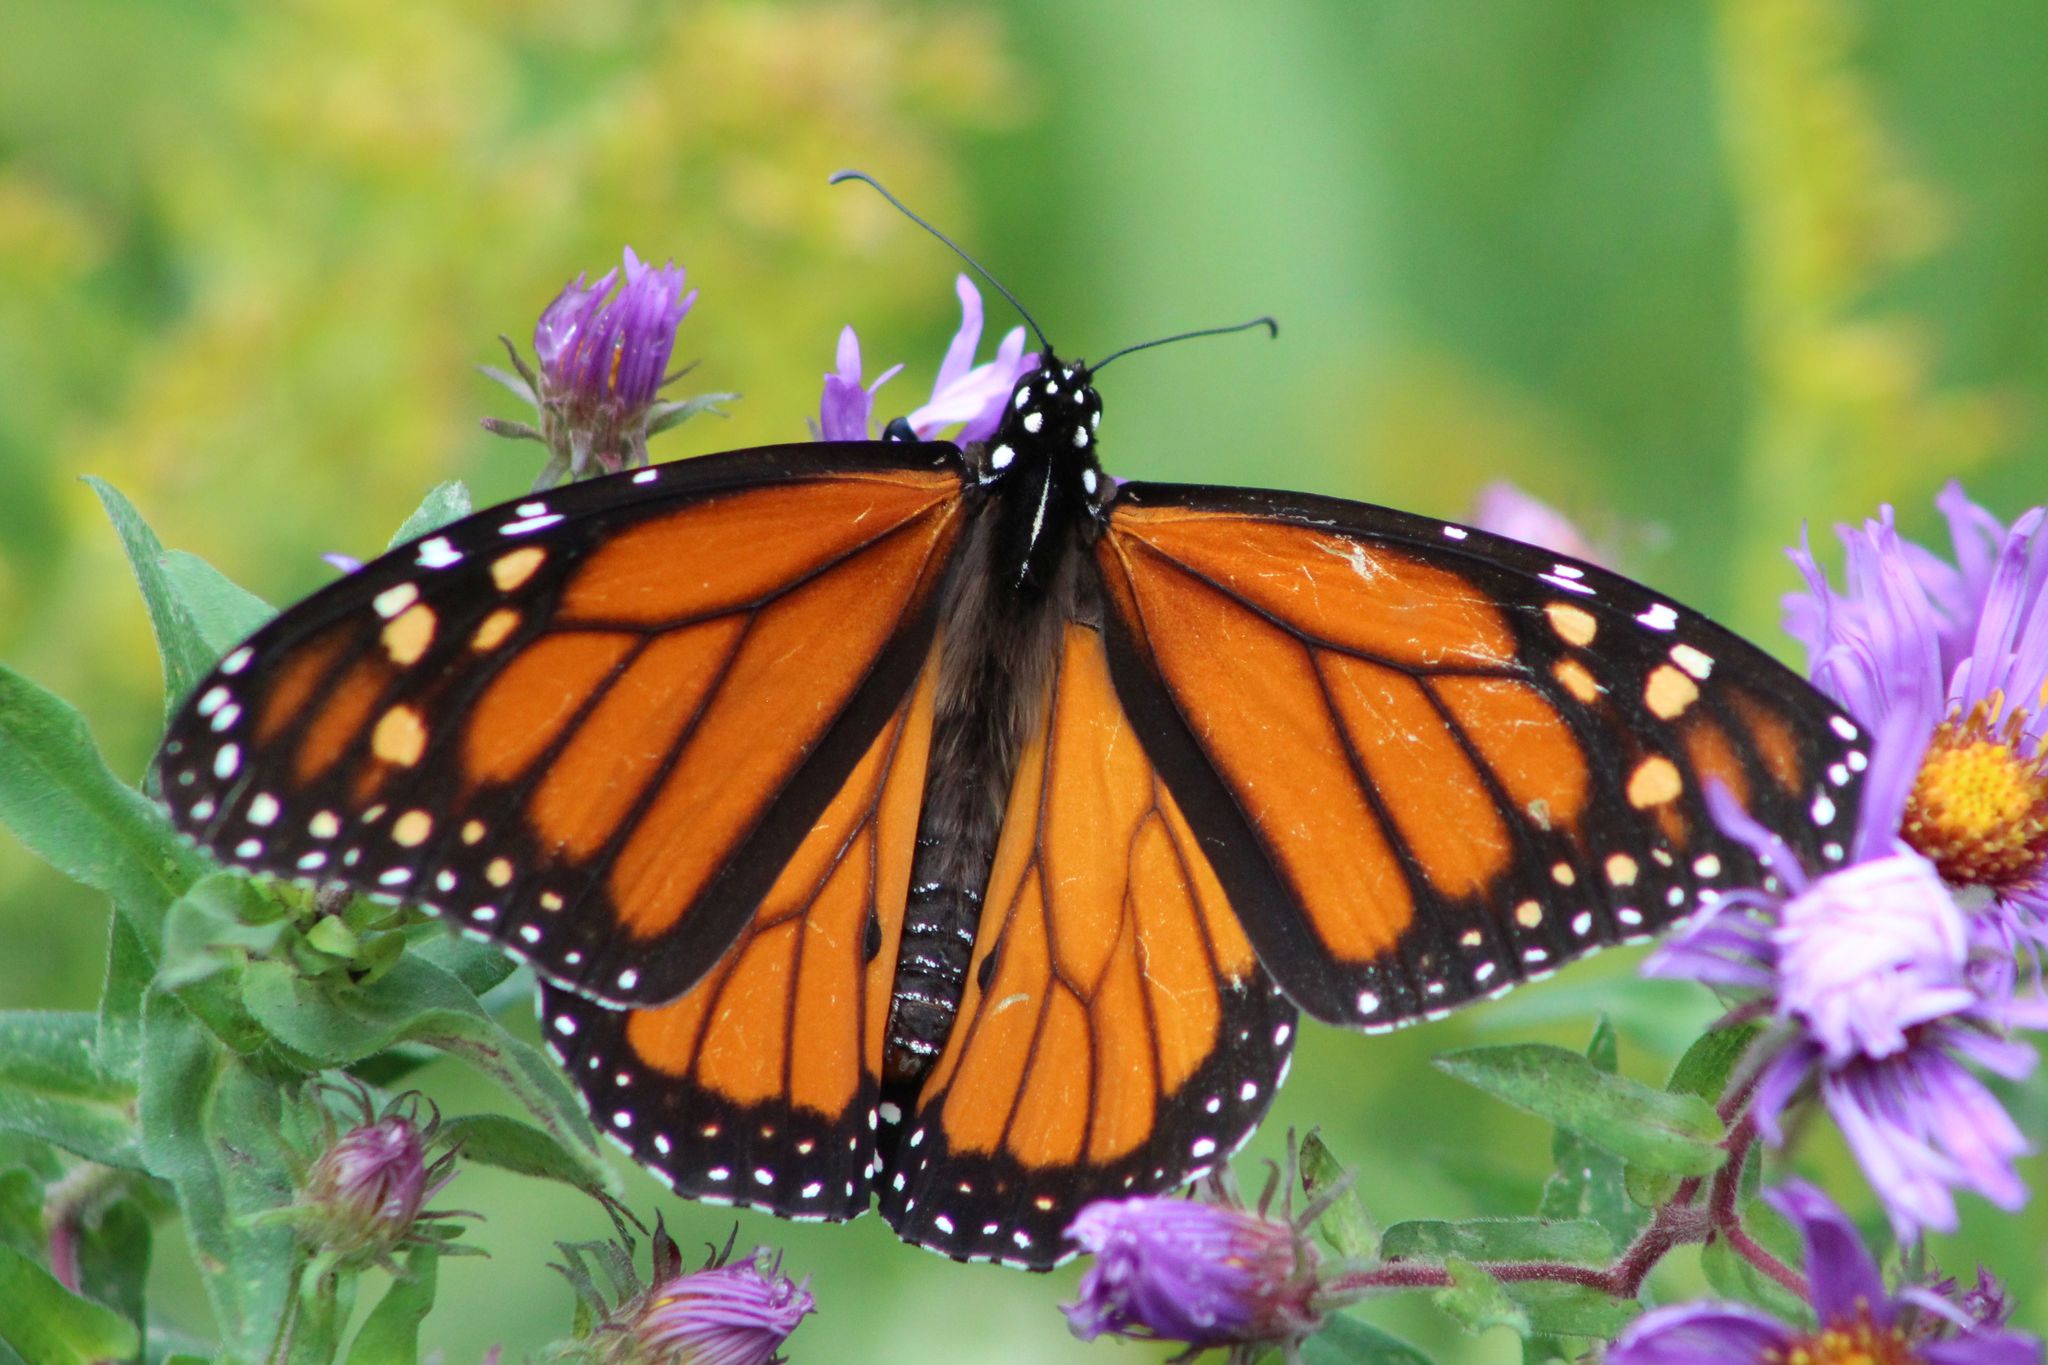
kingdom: Animalia
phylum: Arthropoda
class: Insecta
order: Lepidoptera
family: Nymphalidae
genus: Danaus
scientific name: Danaus plexippus
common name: Monarch
